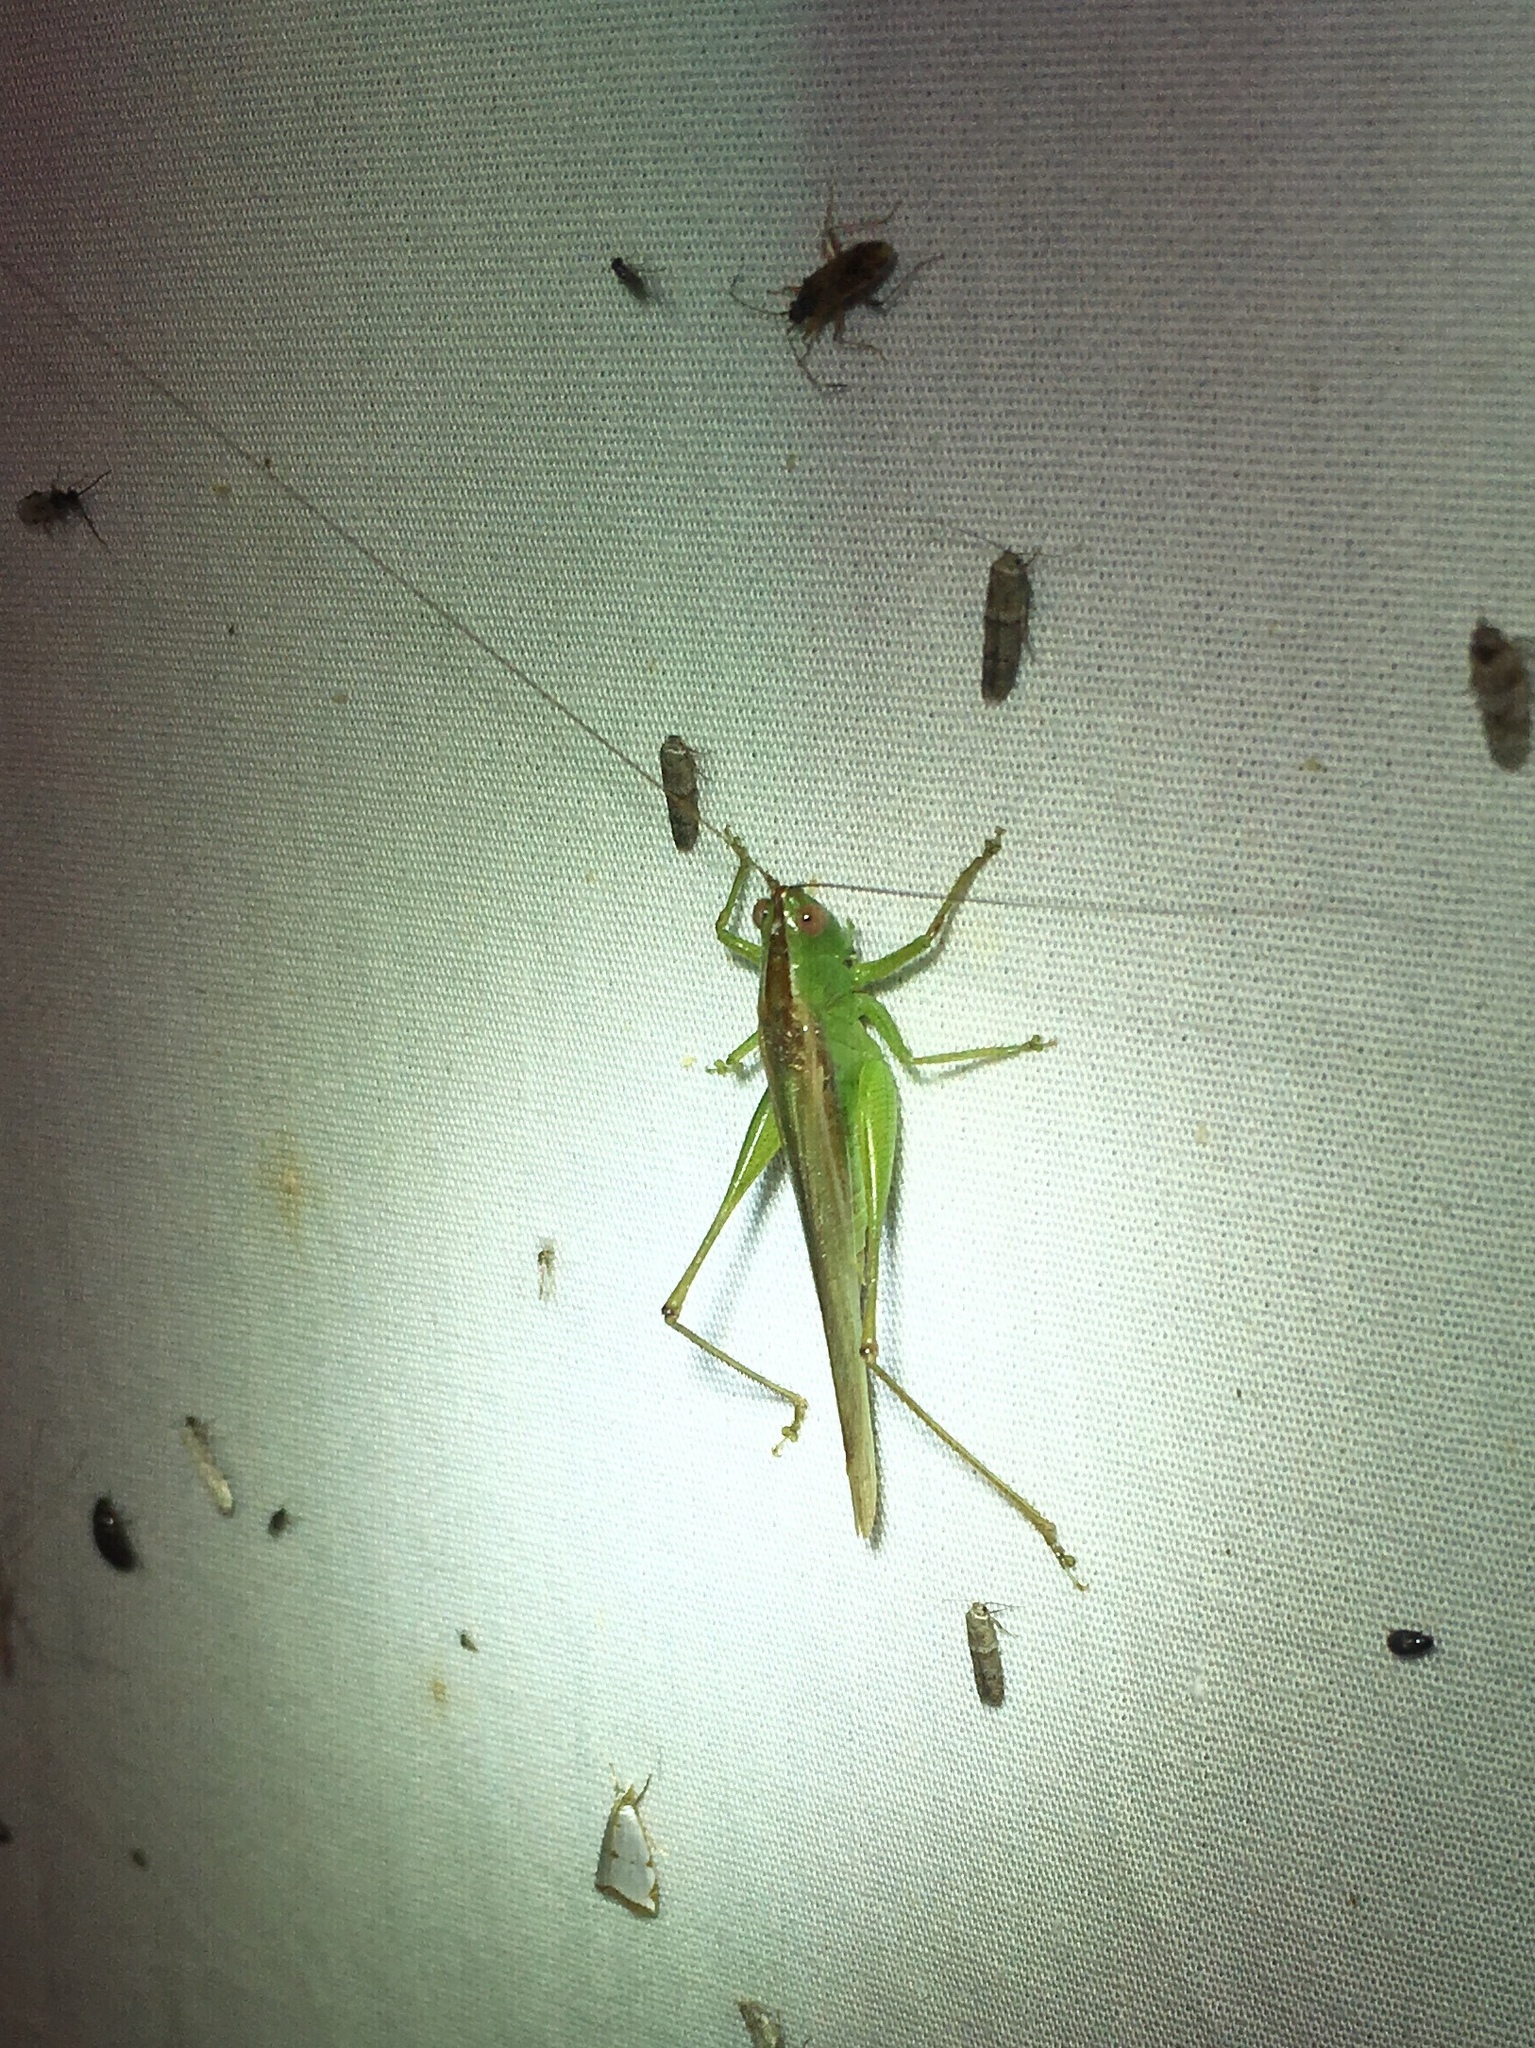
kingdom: Animalia
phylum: Arthropoda
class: Insecta
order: Orthoptera
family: Tettigoniidae
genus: Conocephalus
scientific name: Conocephalus fasciatus
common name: Slender meadow katydid
